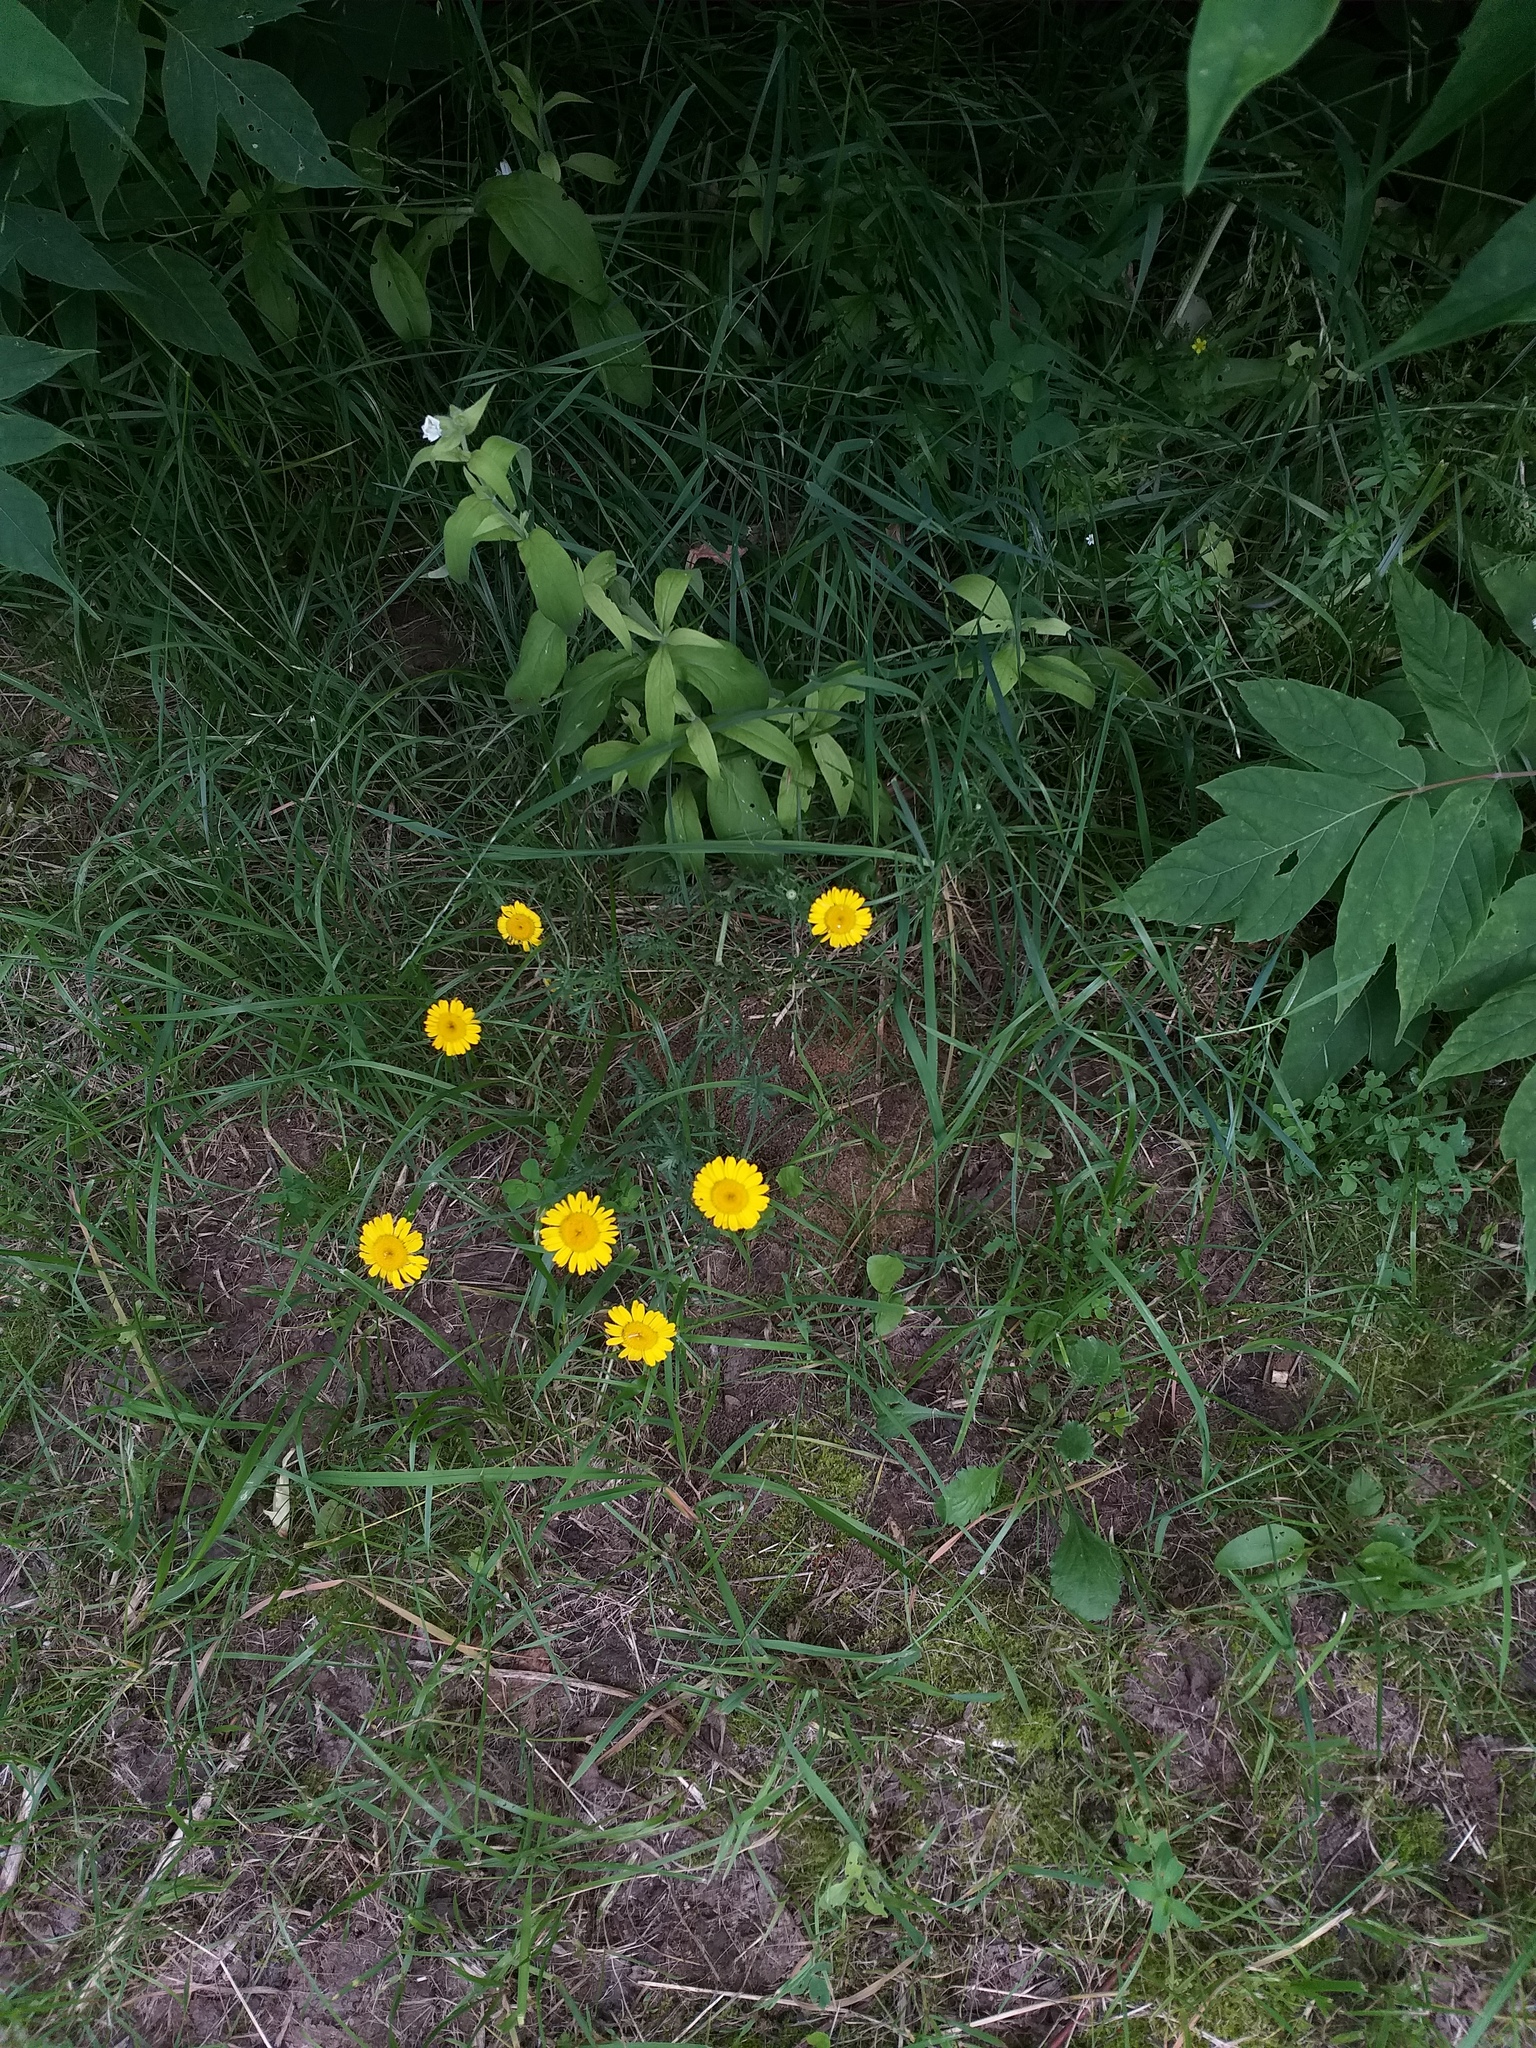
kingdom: Plantae
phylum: Tracheophyta
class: Magnoliopsida
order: Asterales
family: Asteraceae
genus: Cota
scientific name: Cota tinctoria
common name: Golden chamomile
